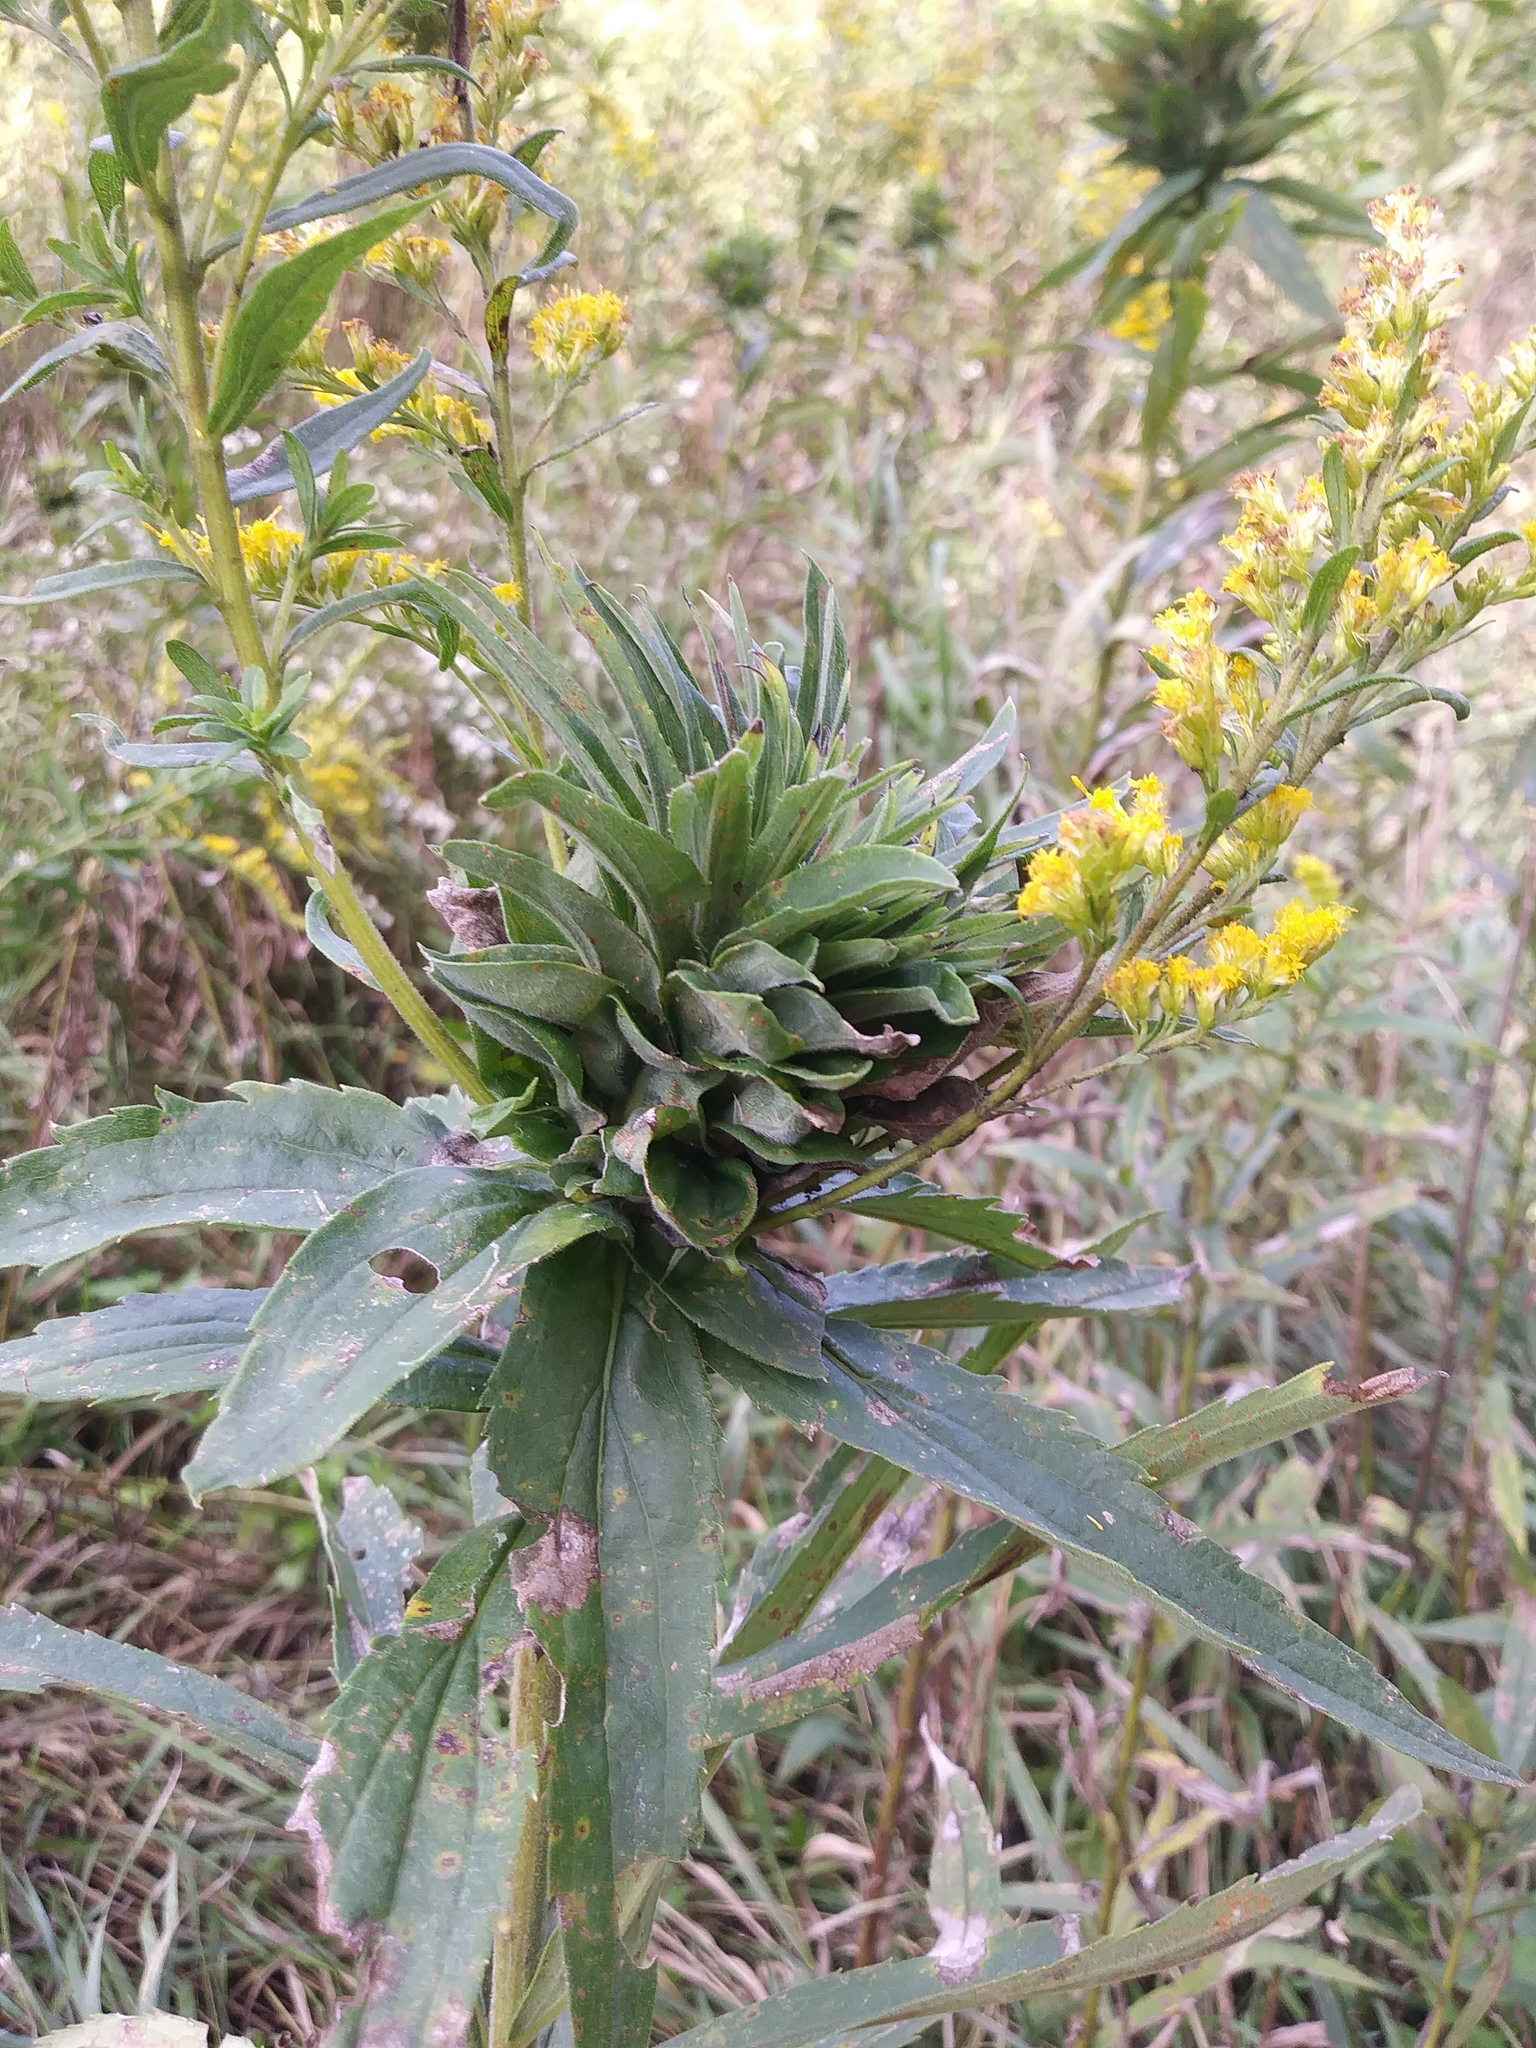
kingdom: Animalia
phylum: Arthropoda
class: Insecta
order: Diptera
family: Cecidomyiidae
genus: Rhopalomyia
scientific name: Rhopalomyia solidaginis
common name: Goldenrod bunch gall midge
